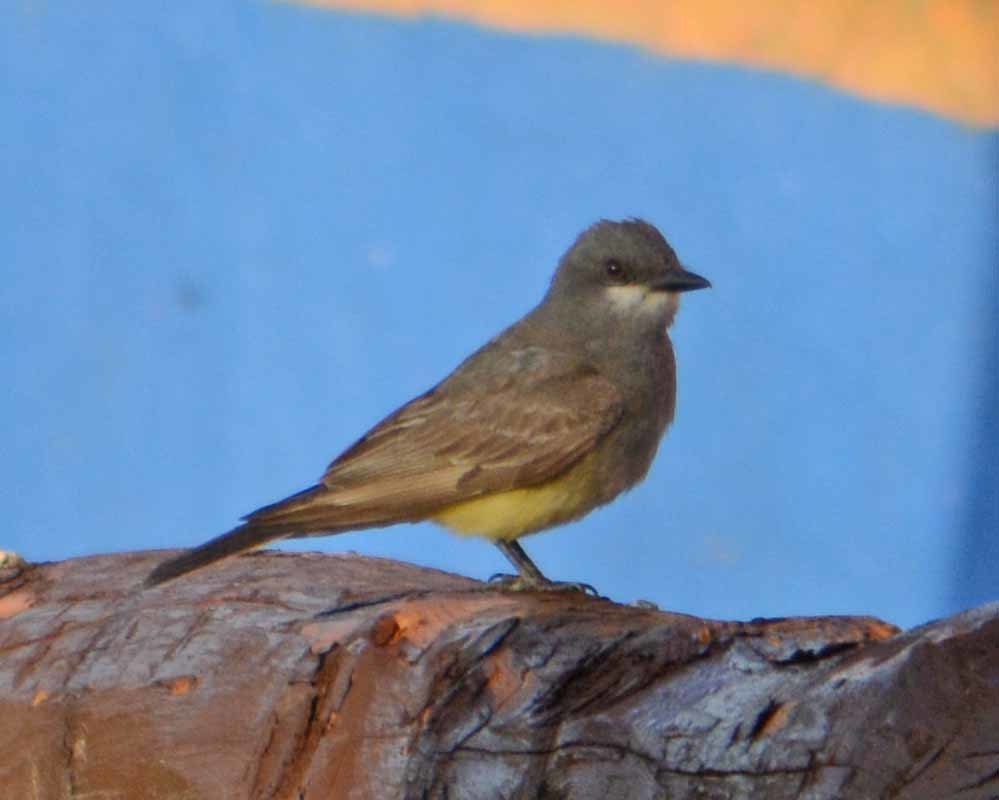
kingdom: Animalia
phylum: Chordata
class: Aves
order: Passeriformes
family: Tyrannidae
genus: Tyrannus
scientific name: Tyrannus vociferans
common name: Cassin's kingbird
